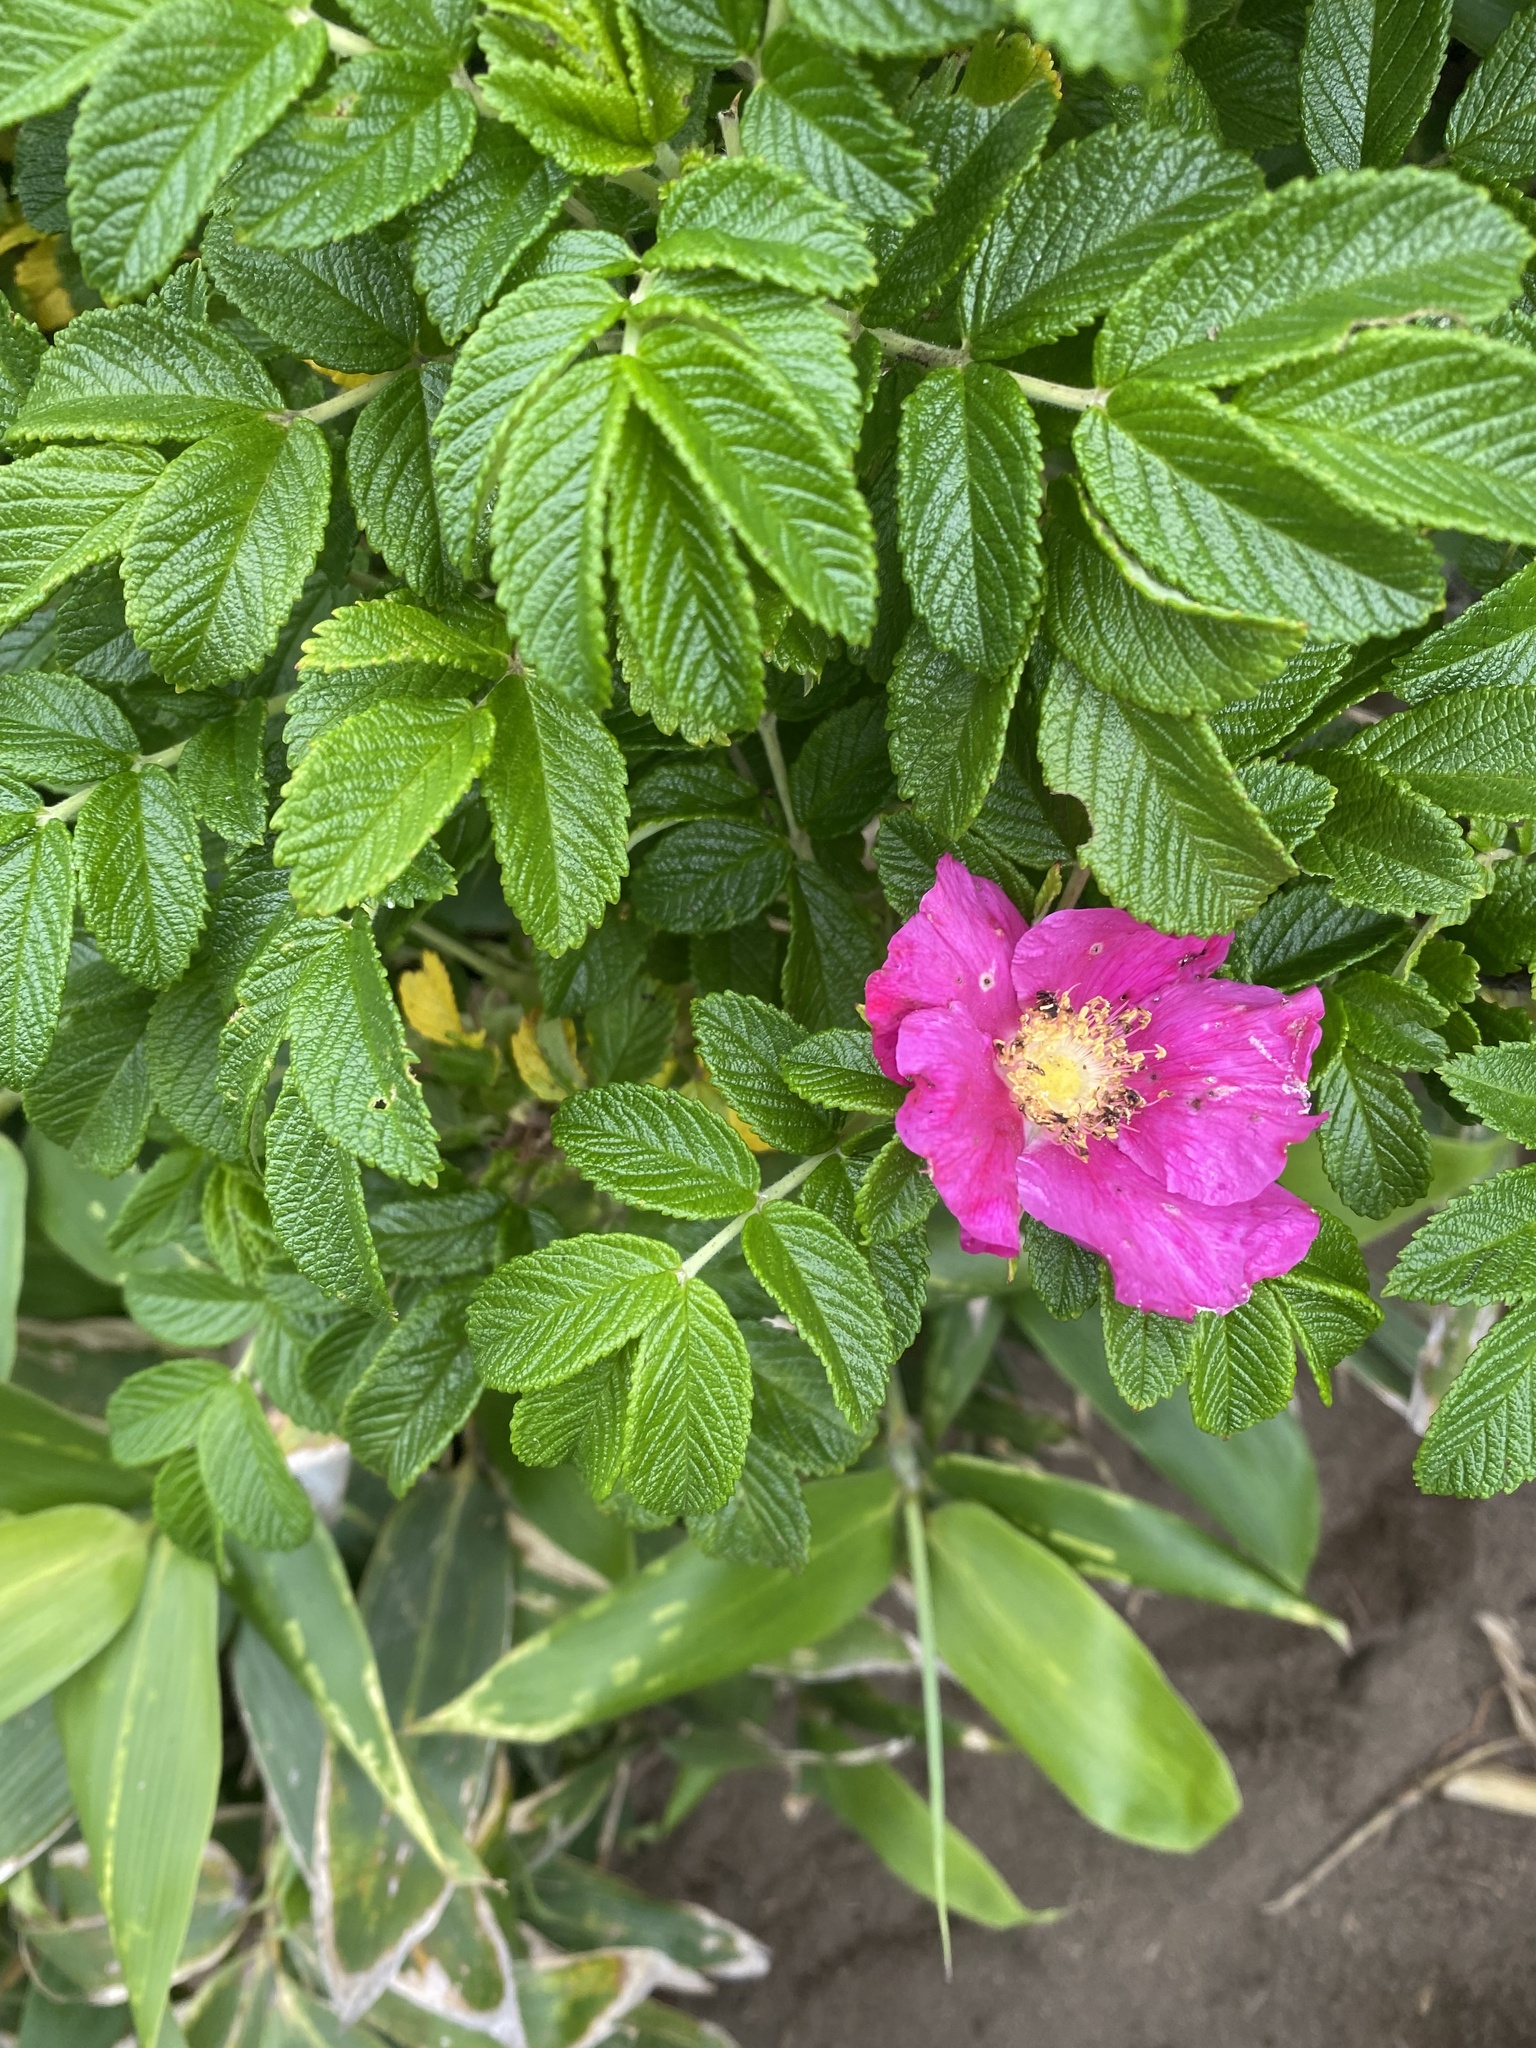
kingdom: Plantae
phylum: Tracheophyta
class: Magnoliopsida
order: Rosales
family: Rosaceae
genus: Rosa
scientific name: Rosa rugosa
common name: Japanese rose
